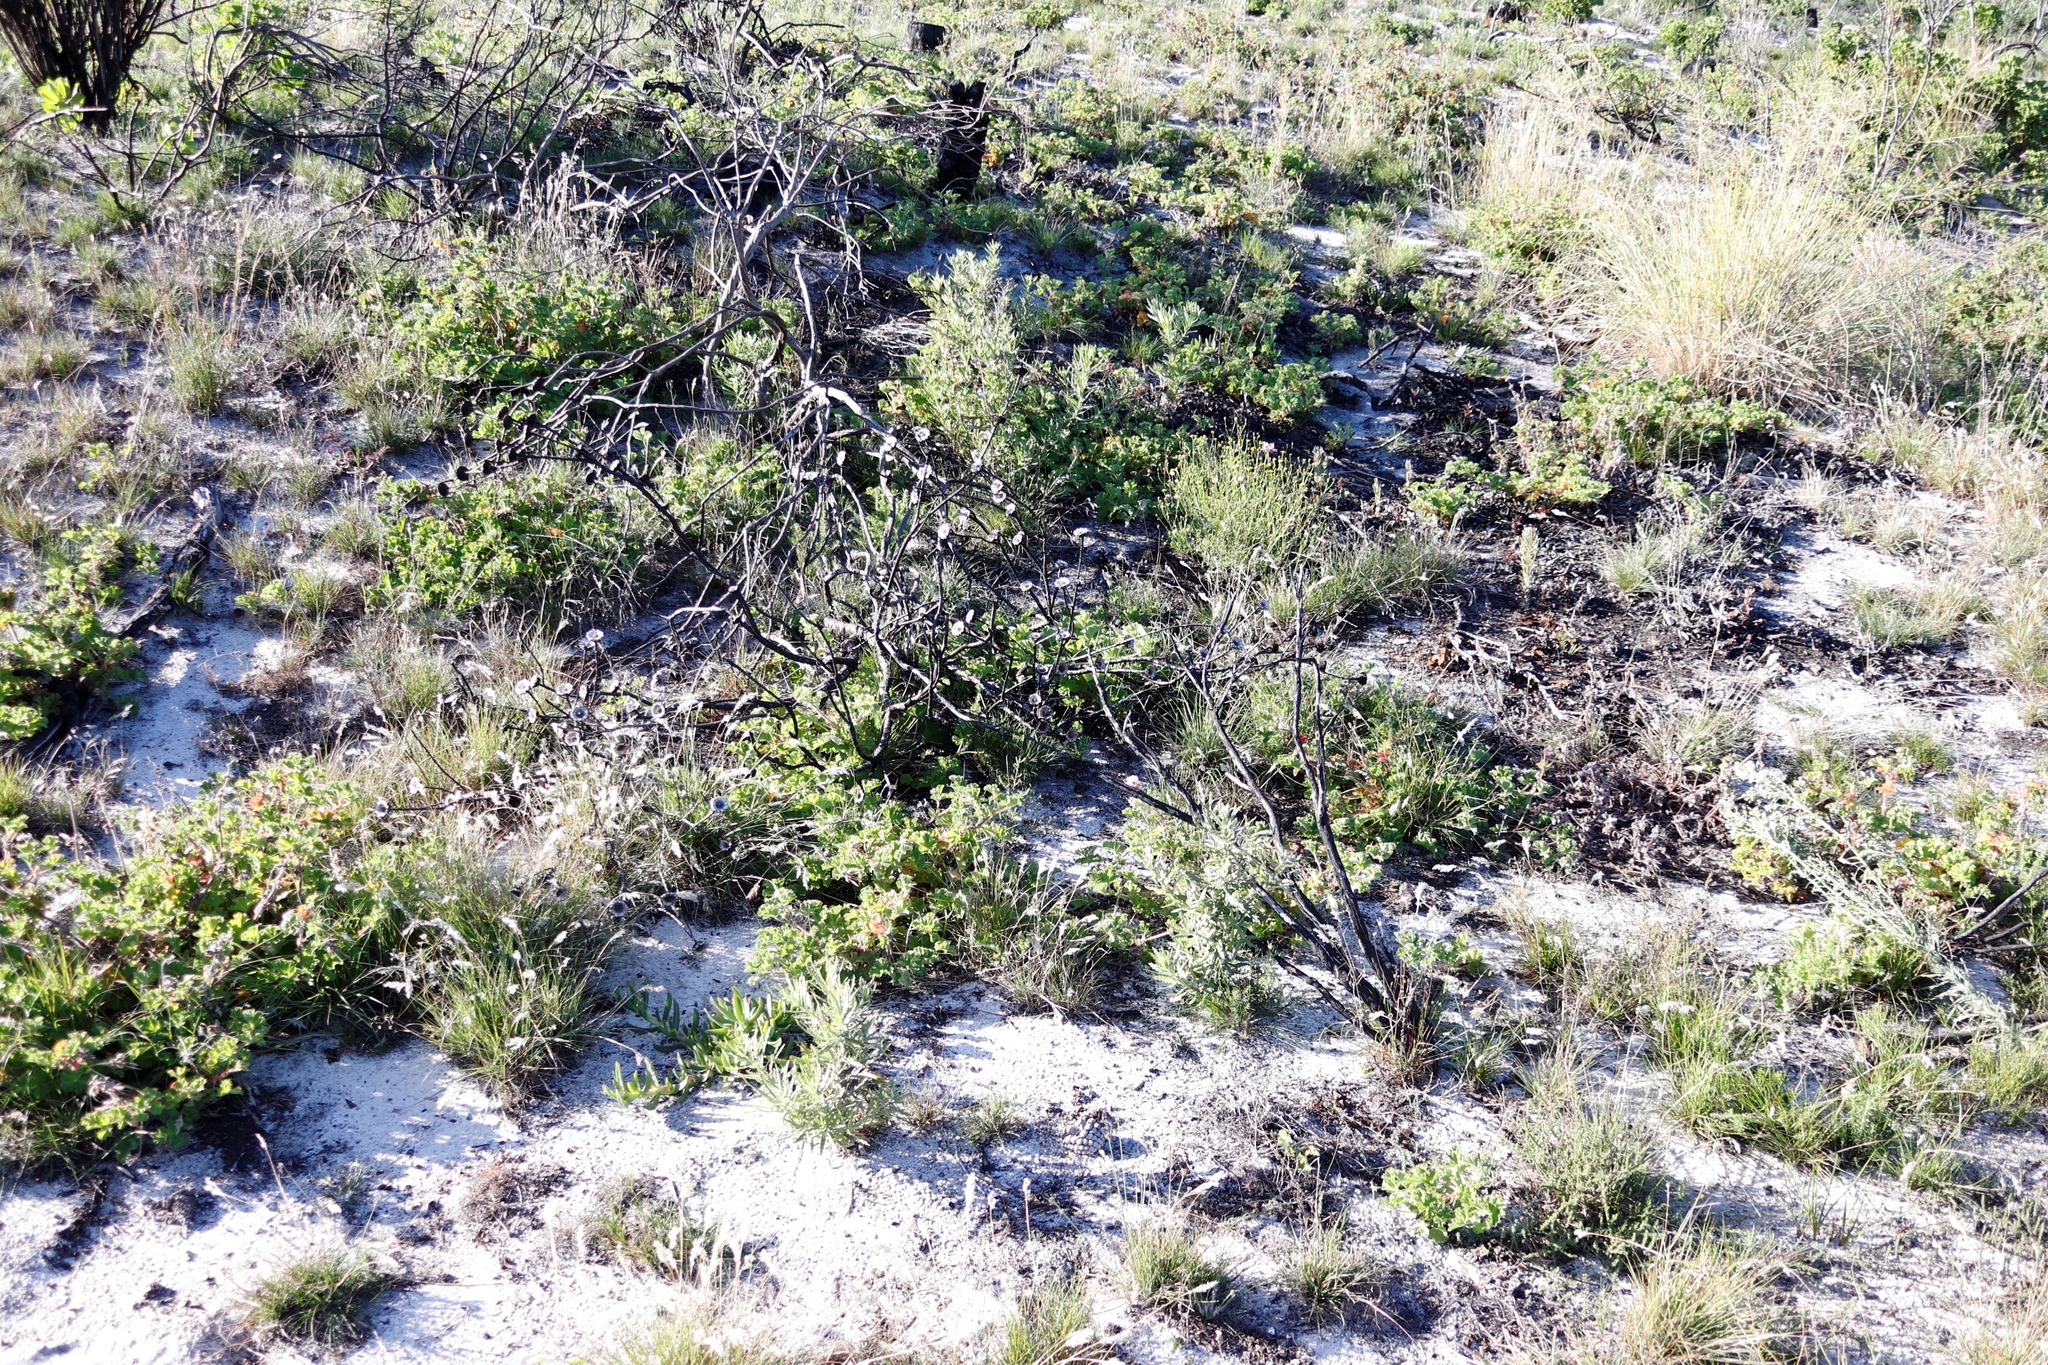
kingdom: Plantae
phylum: Tracheophyta
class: Magnoliopsida
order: Proteales
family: Proteaceae
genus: Protea
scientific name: Protea scolymocephala
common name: Thistle sugarbush
